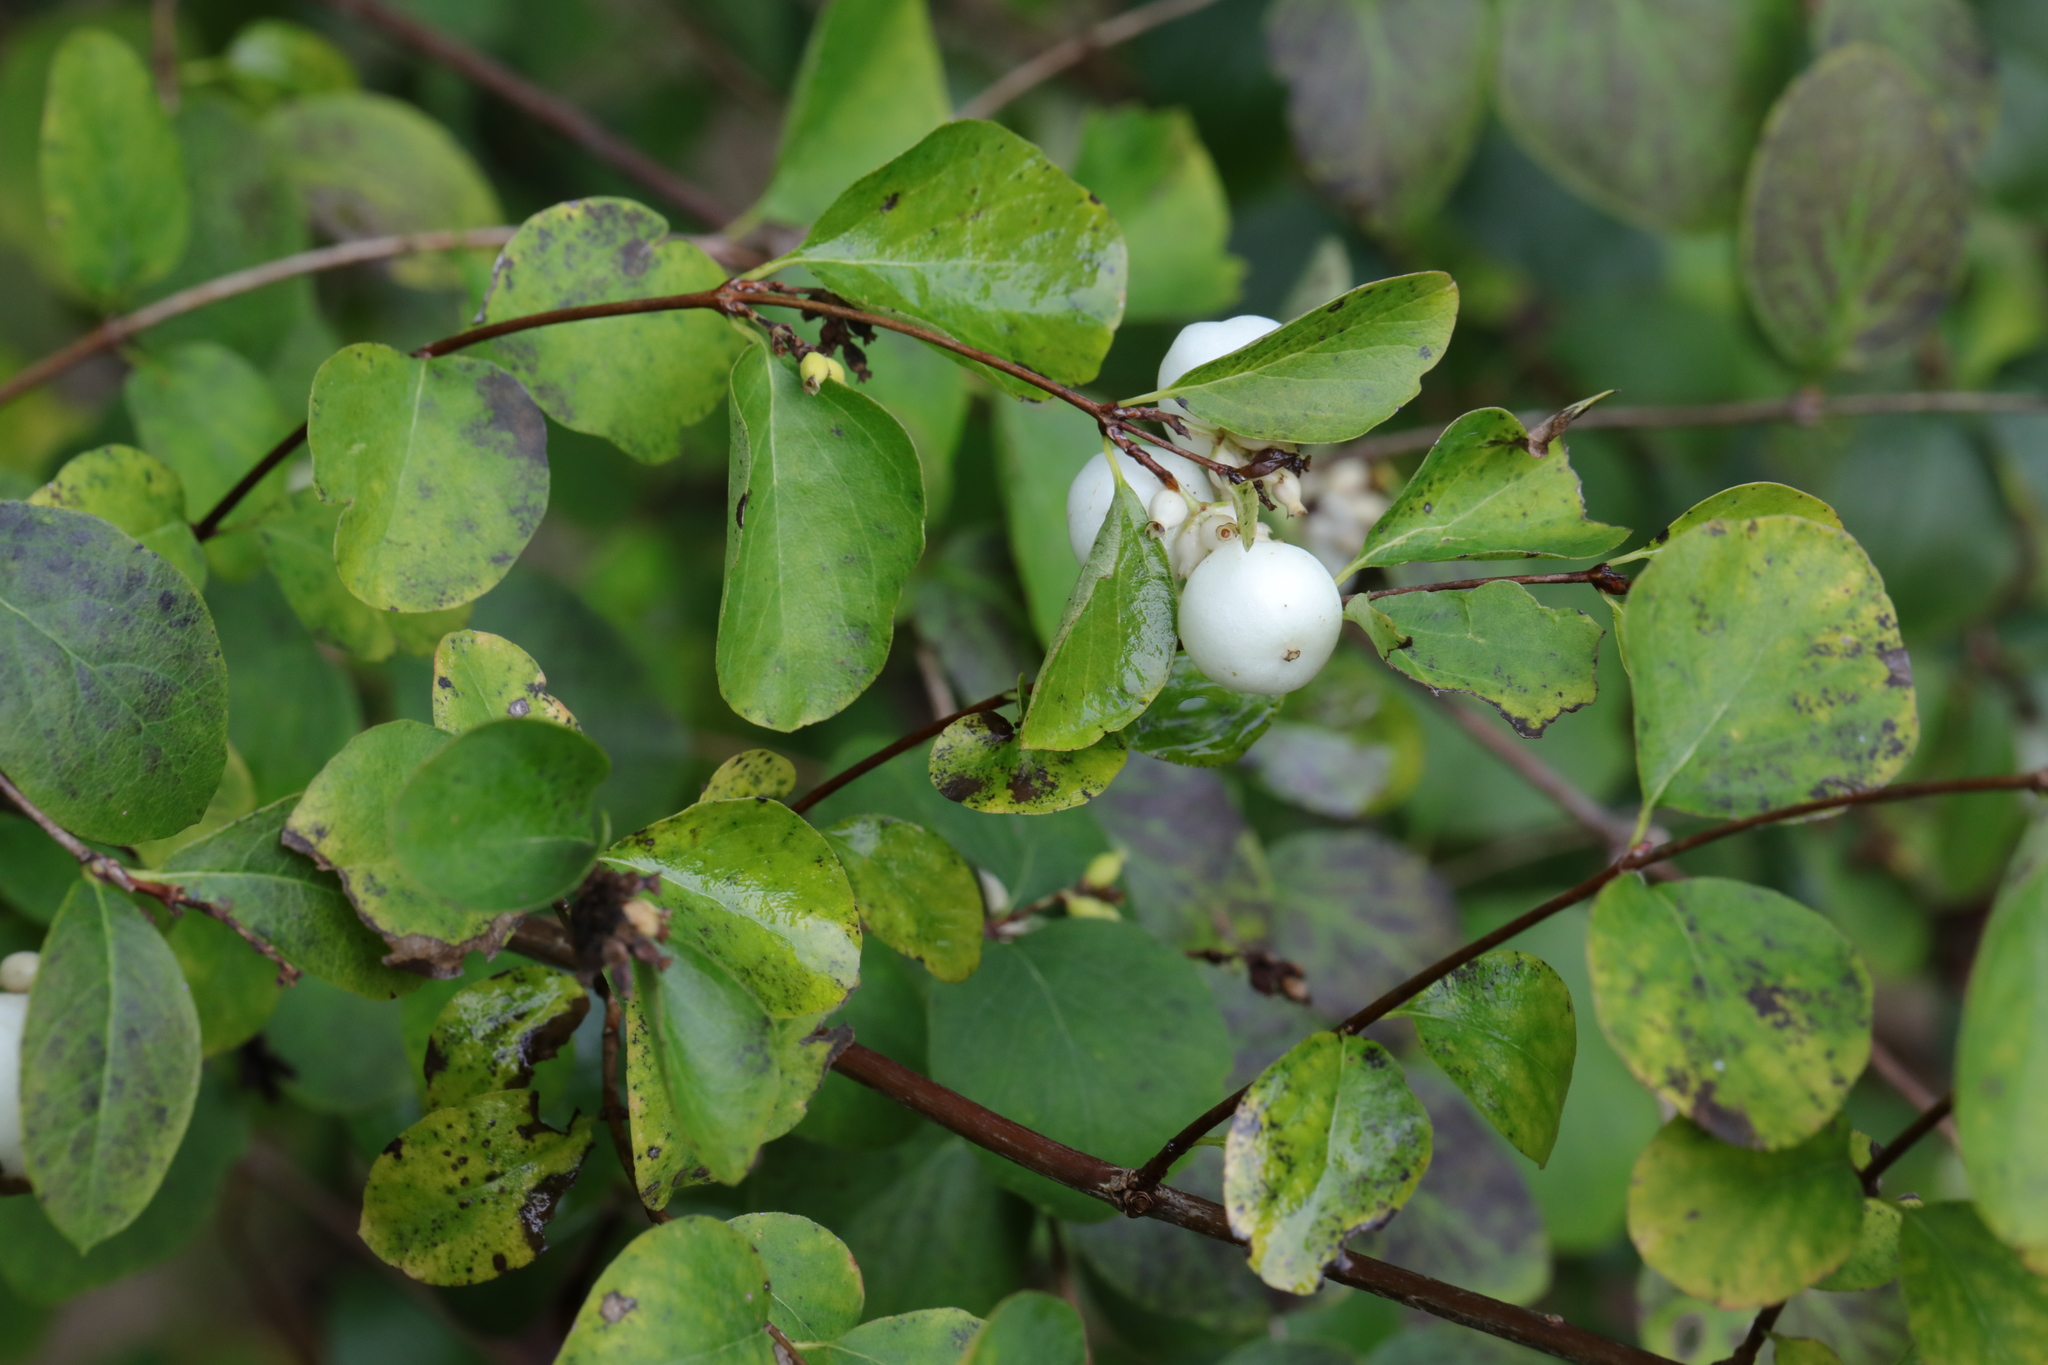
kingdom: Plantae
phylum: Tracheophyta
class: Magnoliopsida
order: Dipsacales
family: Caprifoliaceae
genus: Symphoricarpos
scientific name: Symphoricarpos albus
